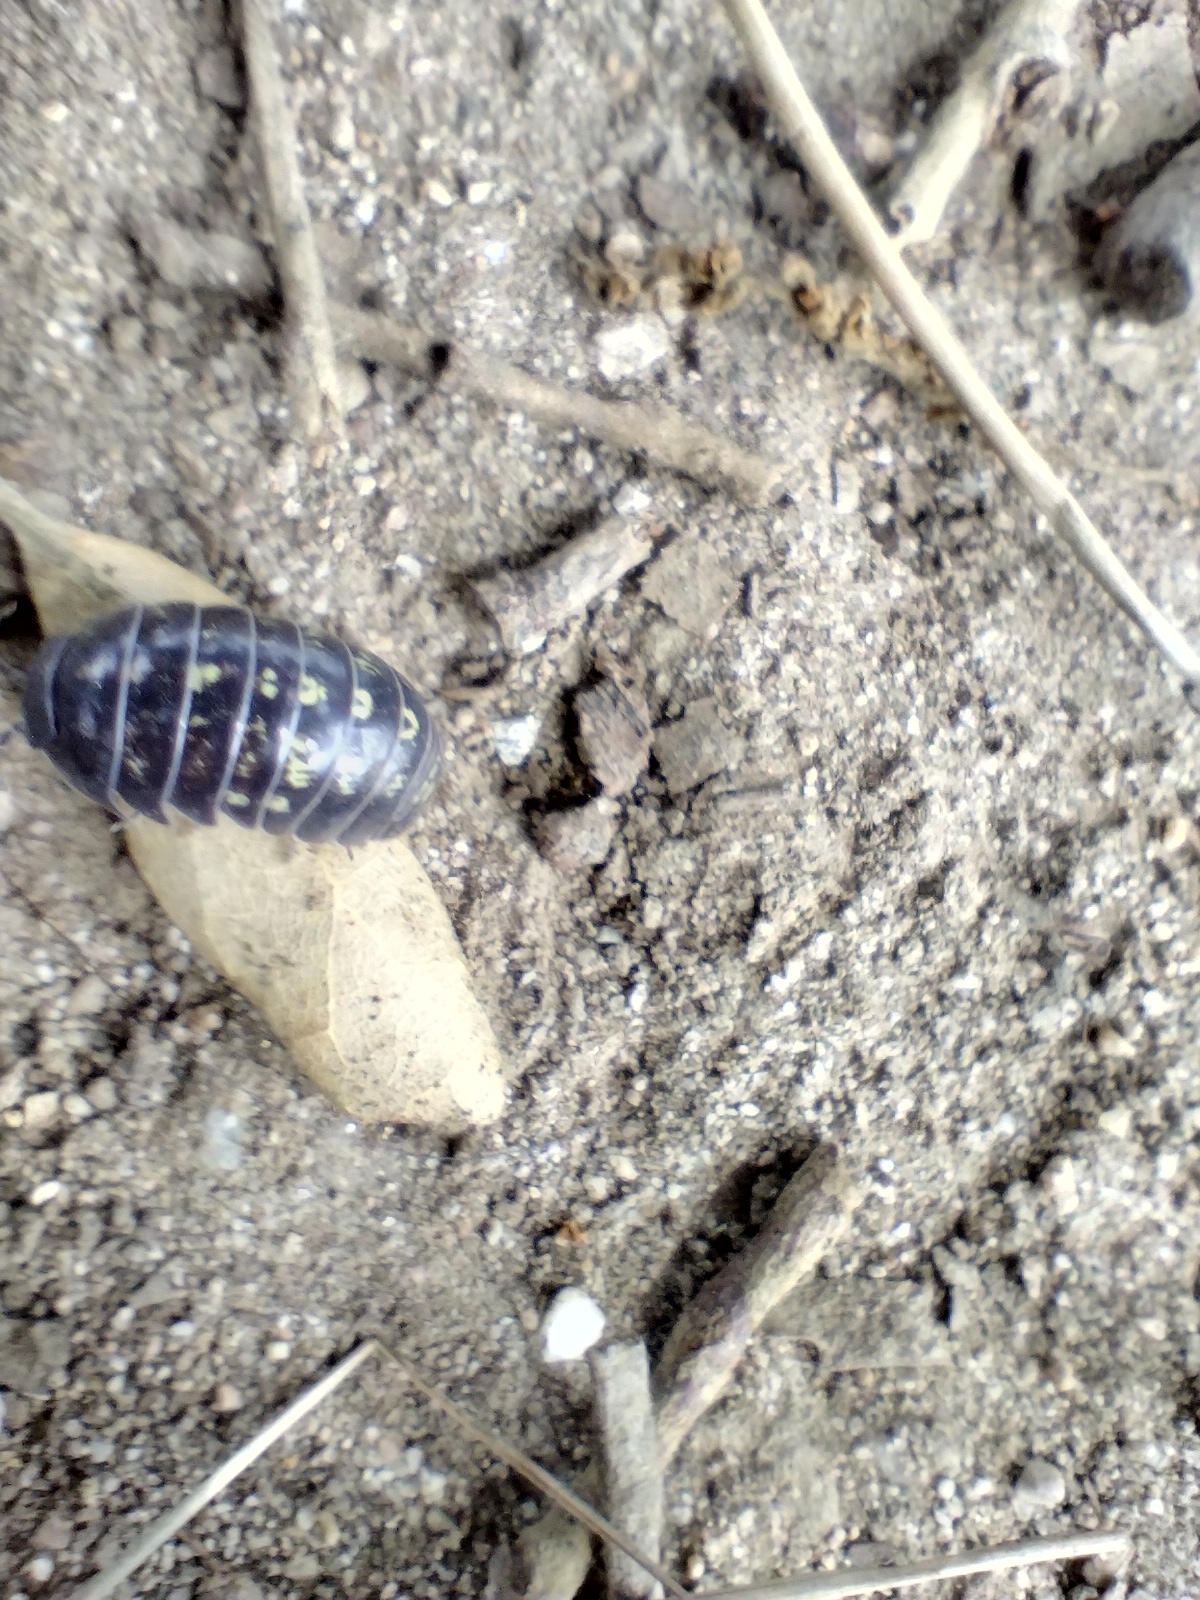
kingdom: Animalia
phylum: Arthropoda
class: Malacostraca
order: Isopoda
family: Armadillidiidae
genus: Armadillidium
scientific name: Armadillidium vulgare
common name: Common pill woodlouse
